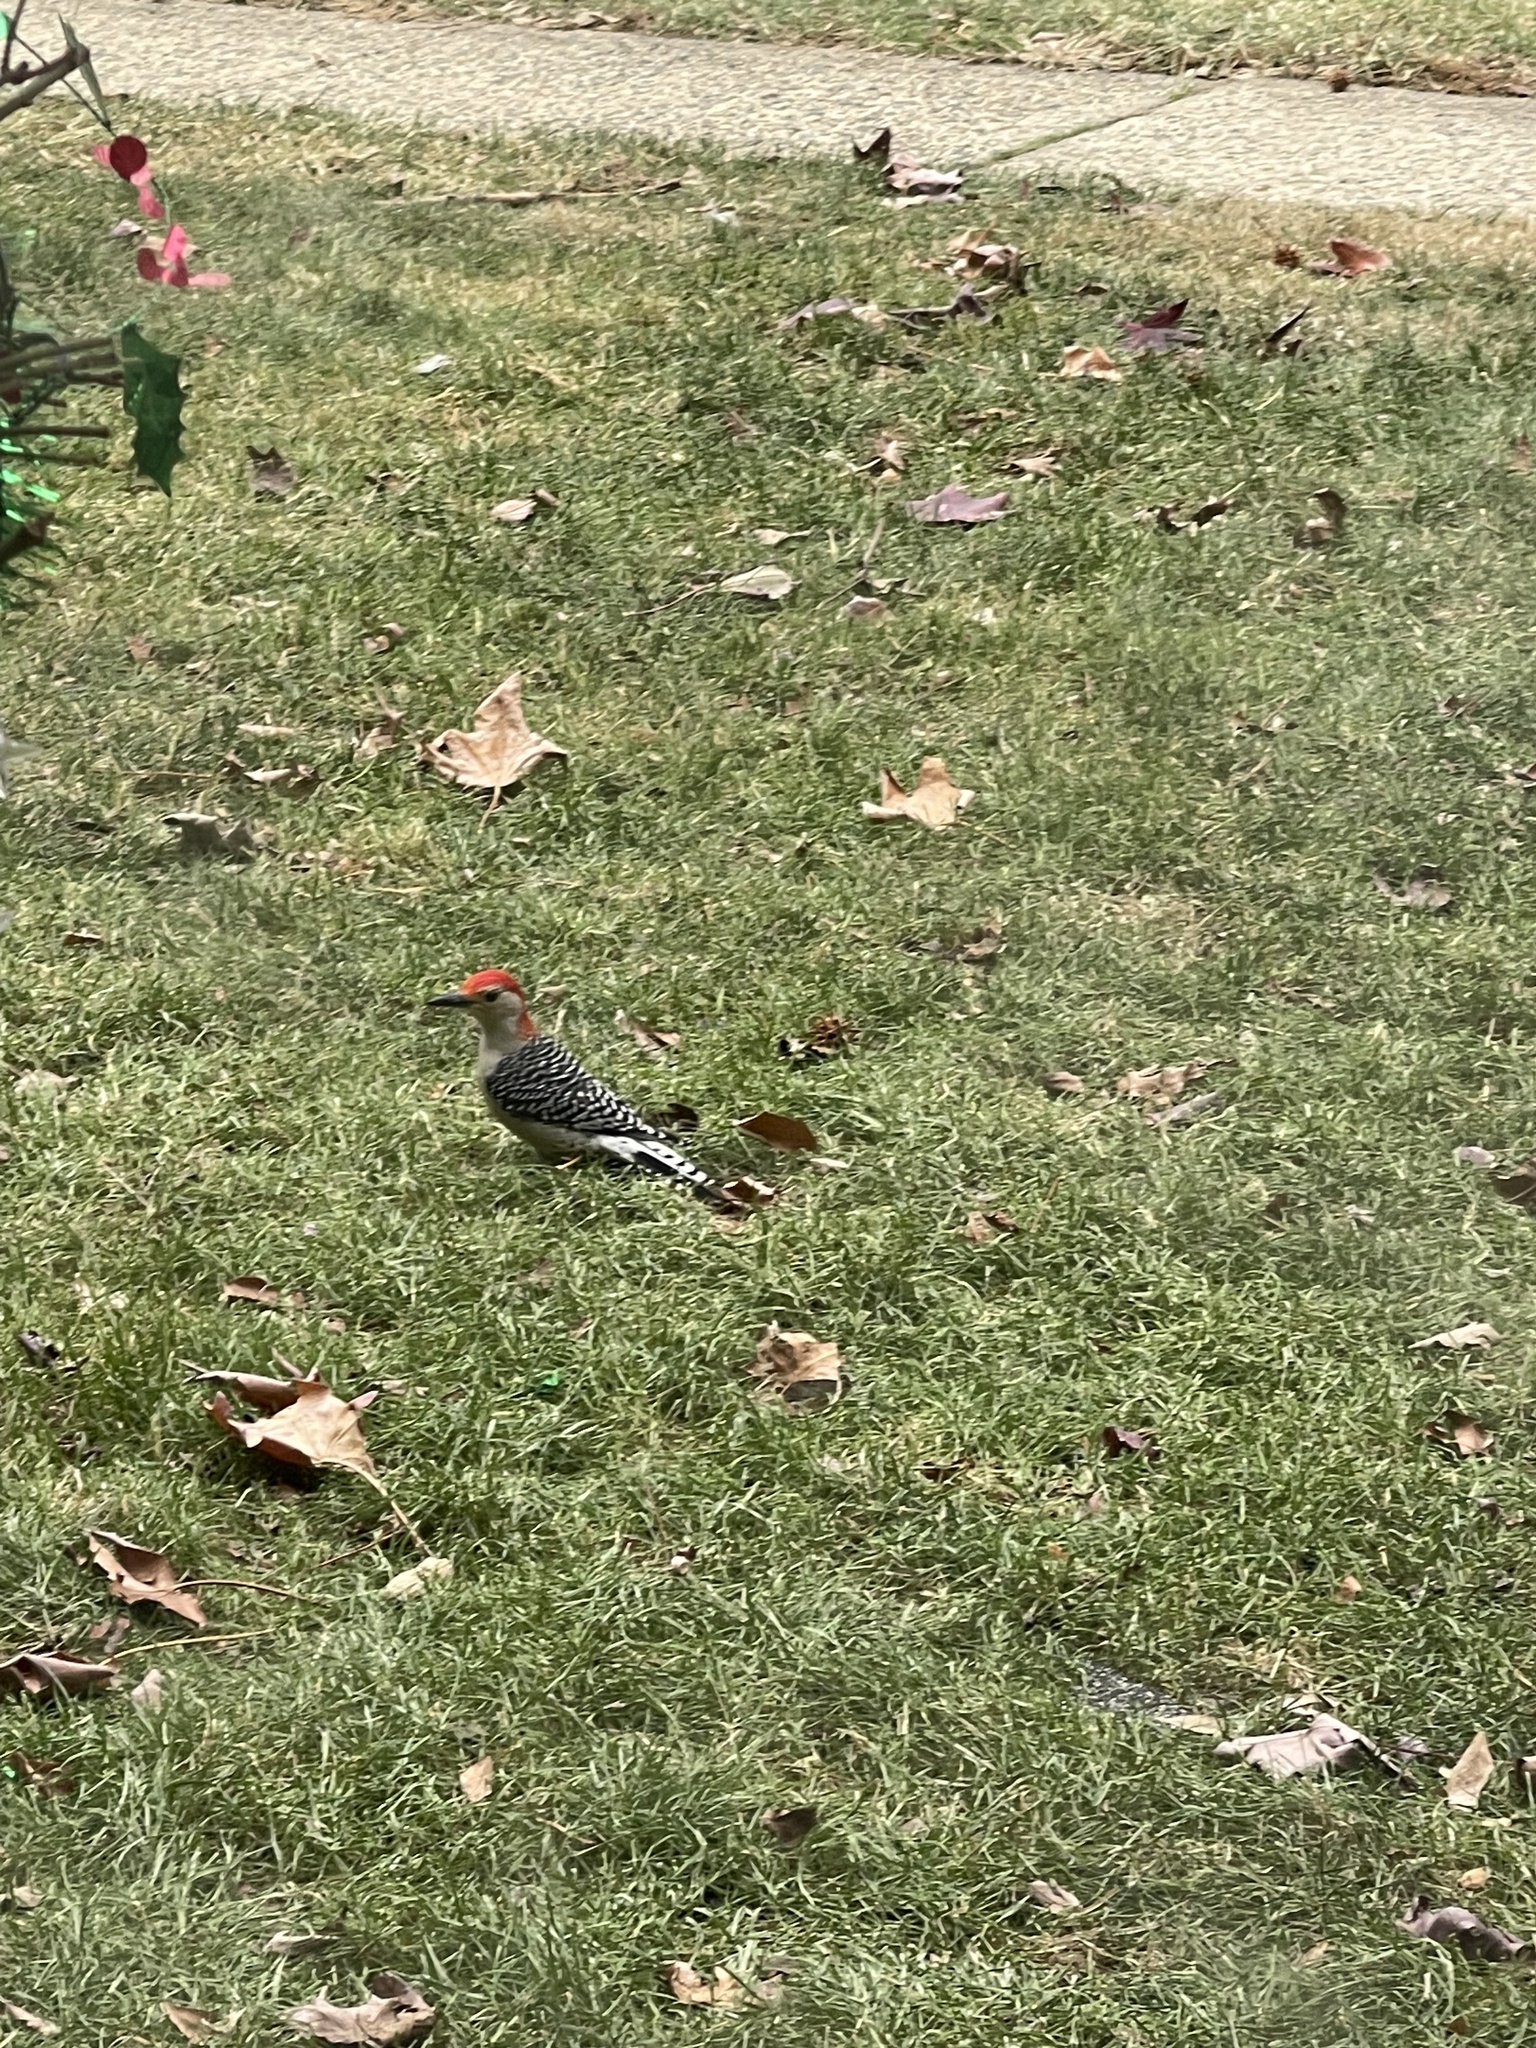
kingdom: Animalia
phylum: Chordata
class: Aves
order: Piciformes
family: Picidae
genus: Melanerpes
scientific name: Melanerpes carolinus
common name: Red-bellied woodpecker
